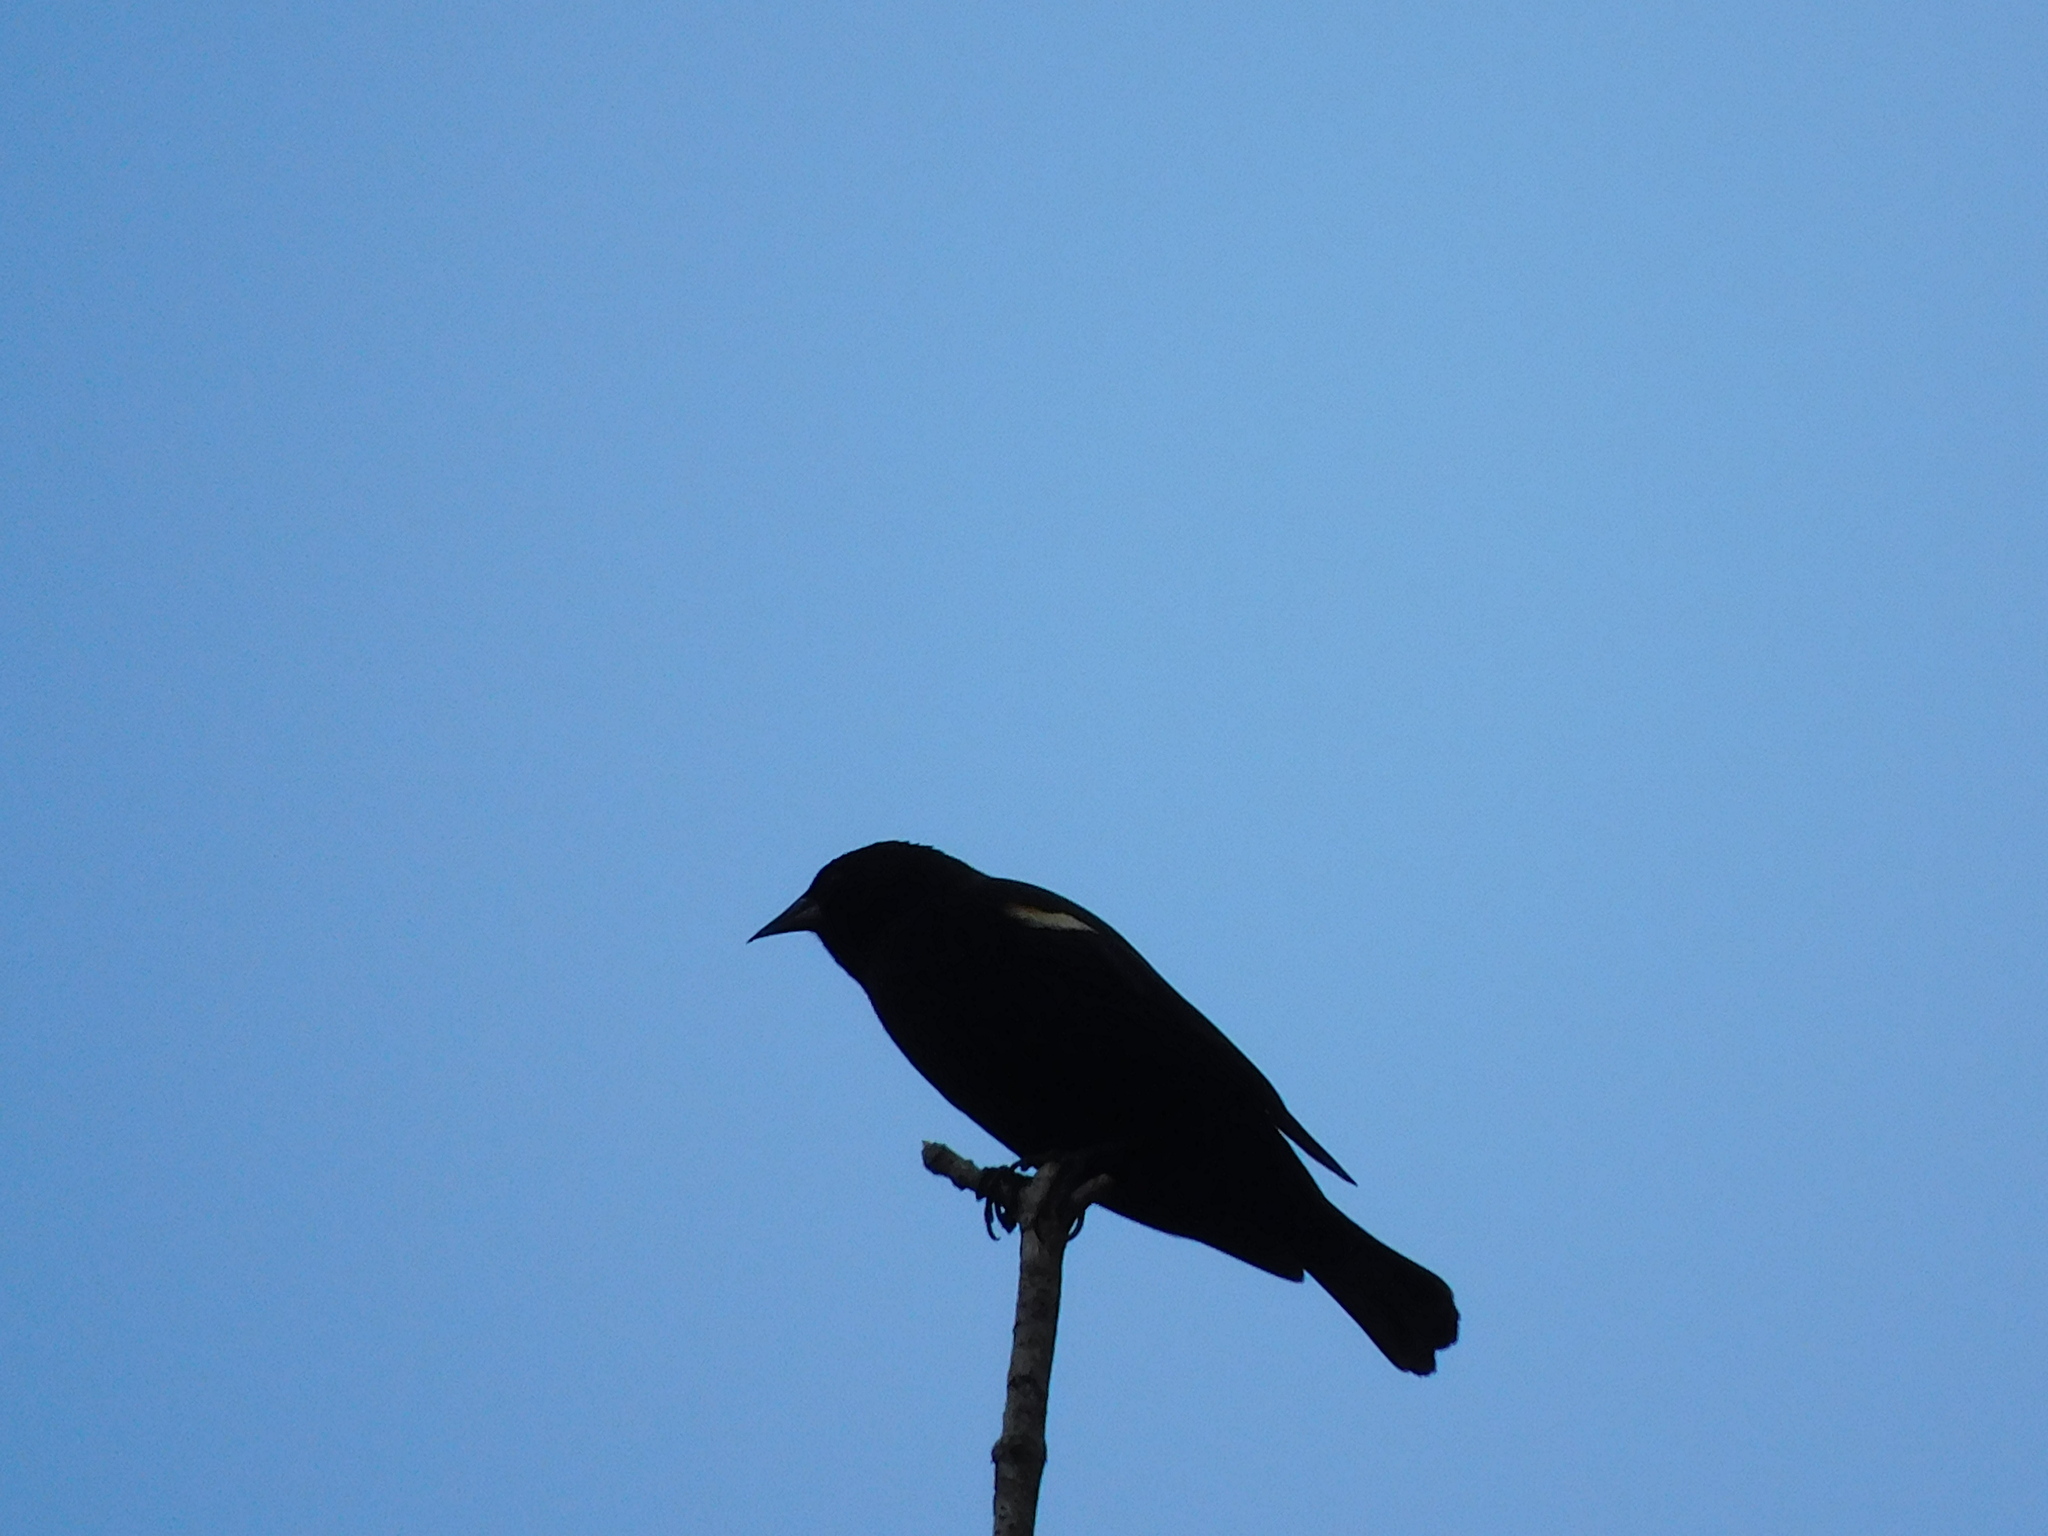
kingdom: Animalia
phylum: Chordata
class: Aves
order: Passeriformes
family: Icteridae
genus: Agelaius
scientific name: Agelaius phoeniceus
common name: Red-winged blackbird
